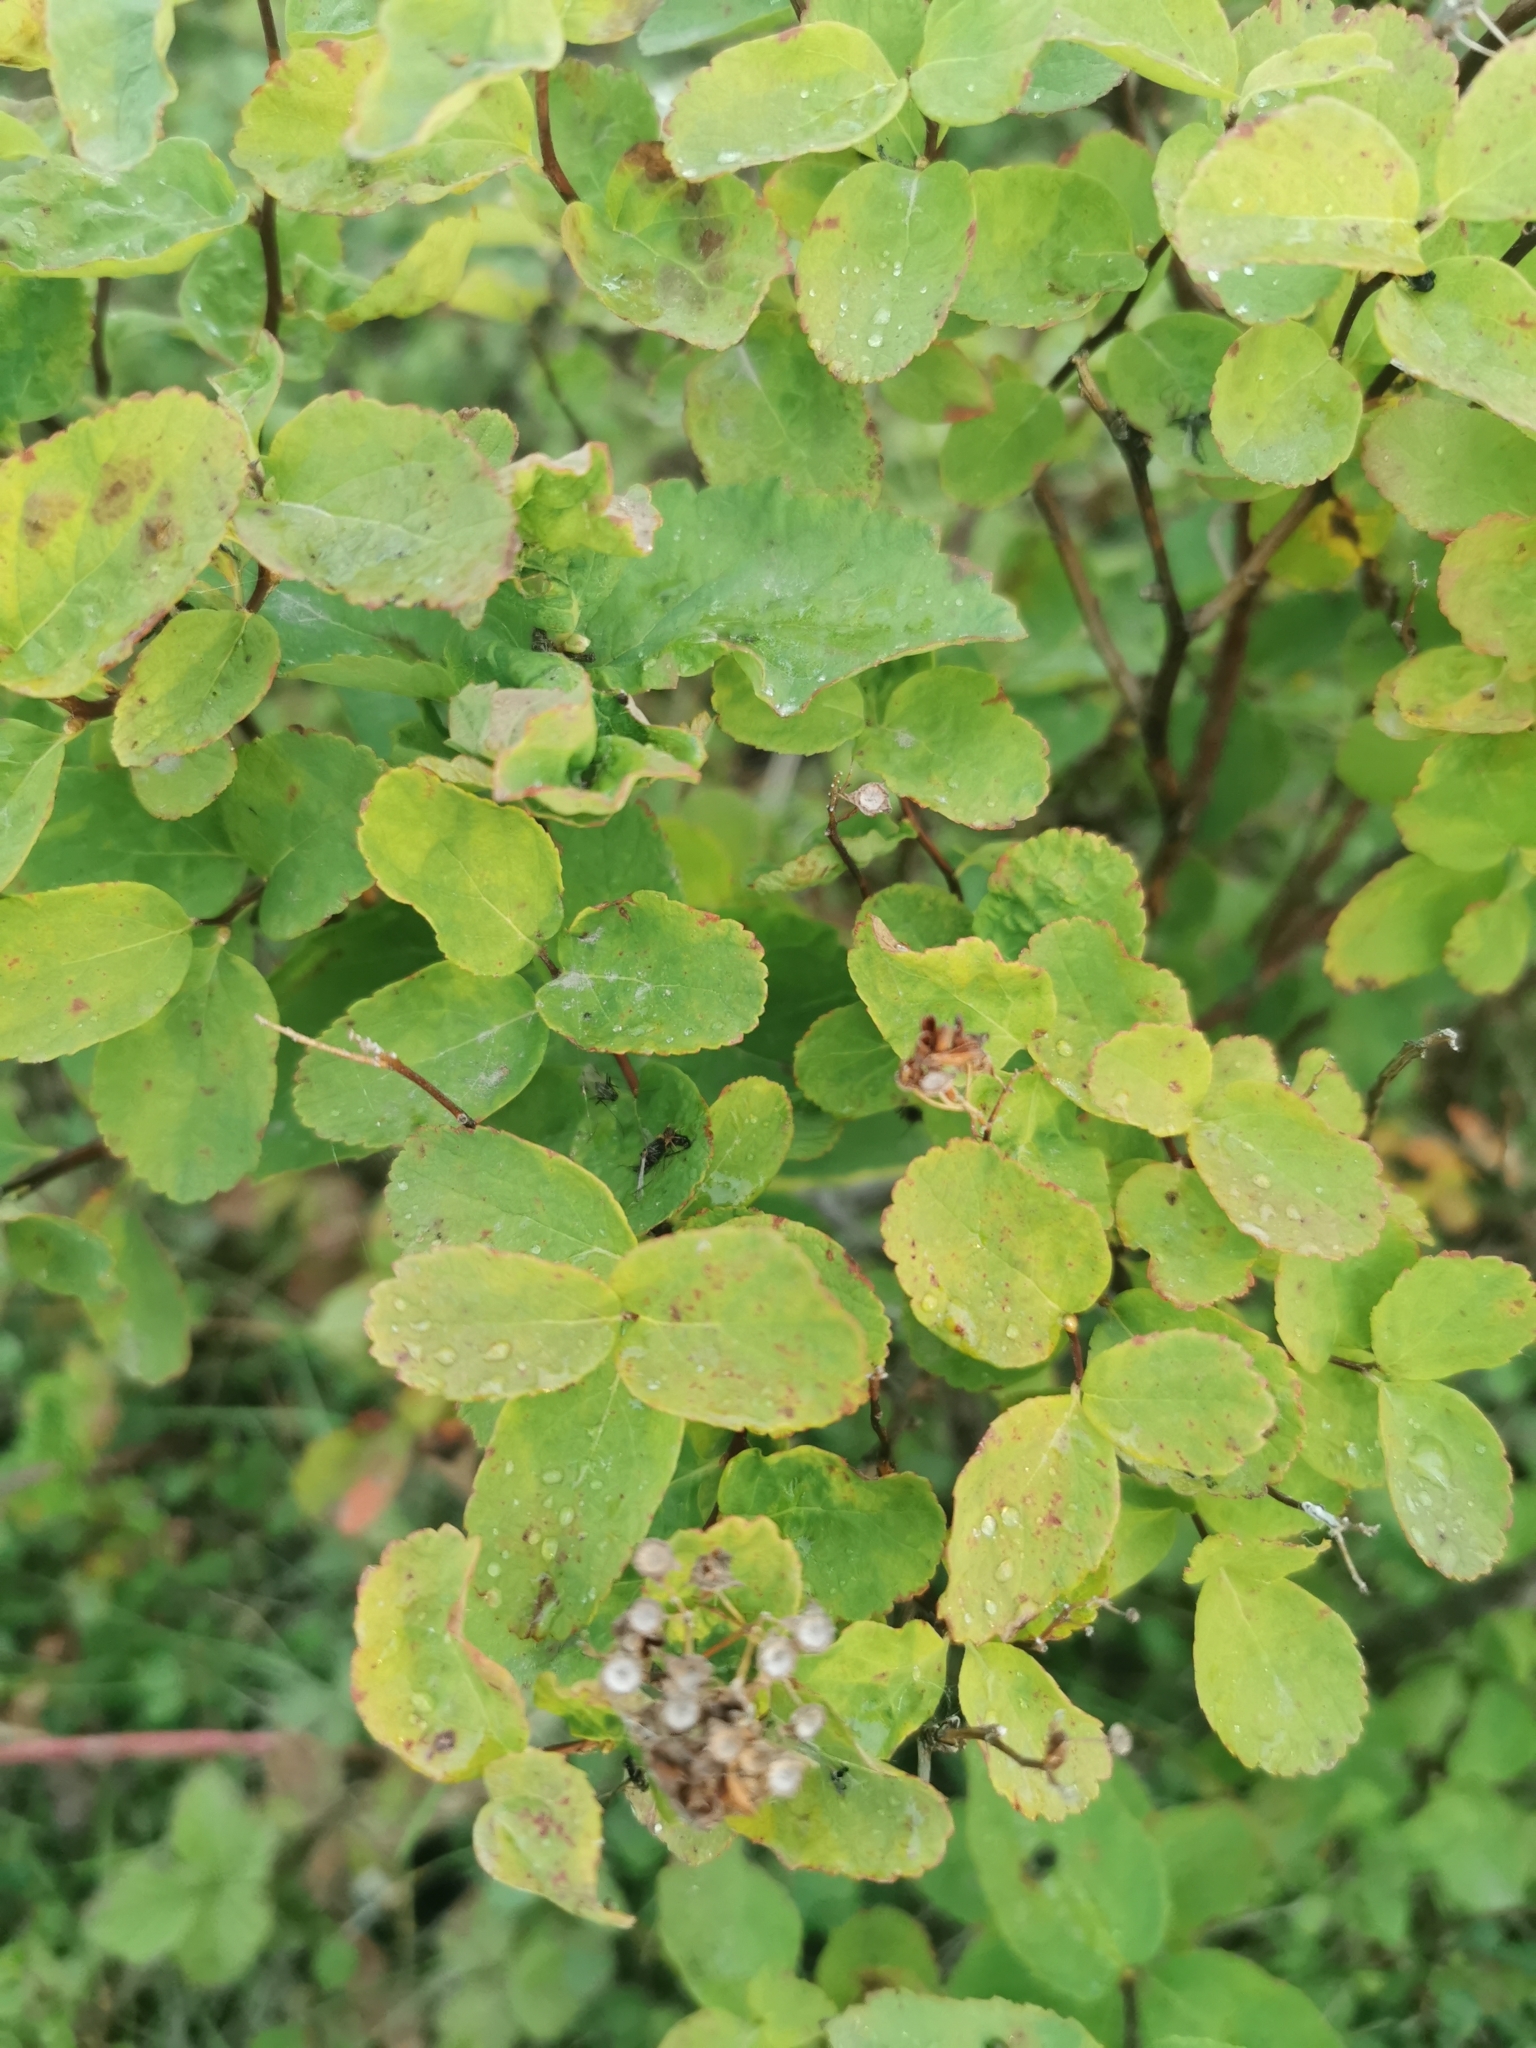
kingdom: Plantae
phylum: Tracheophyta
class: Magnoliopsida
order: Rosales
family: Rosaceae
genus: Spiraea
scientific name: Spiraea betulifolia
